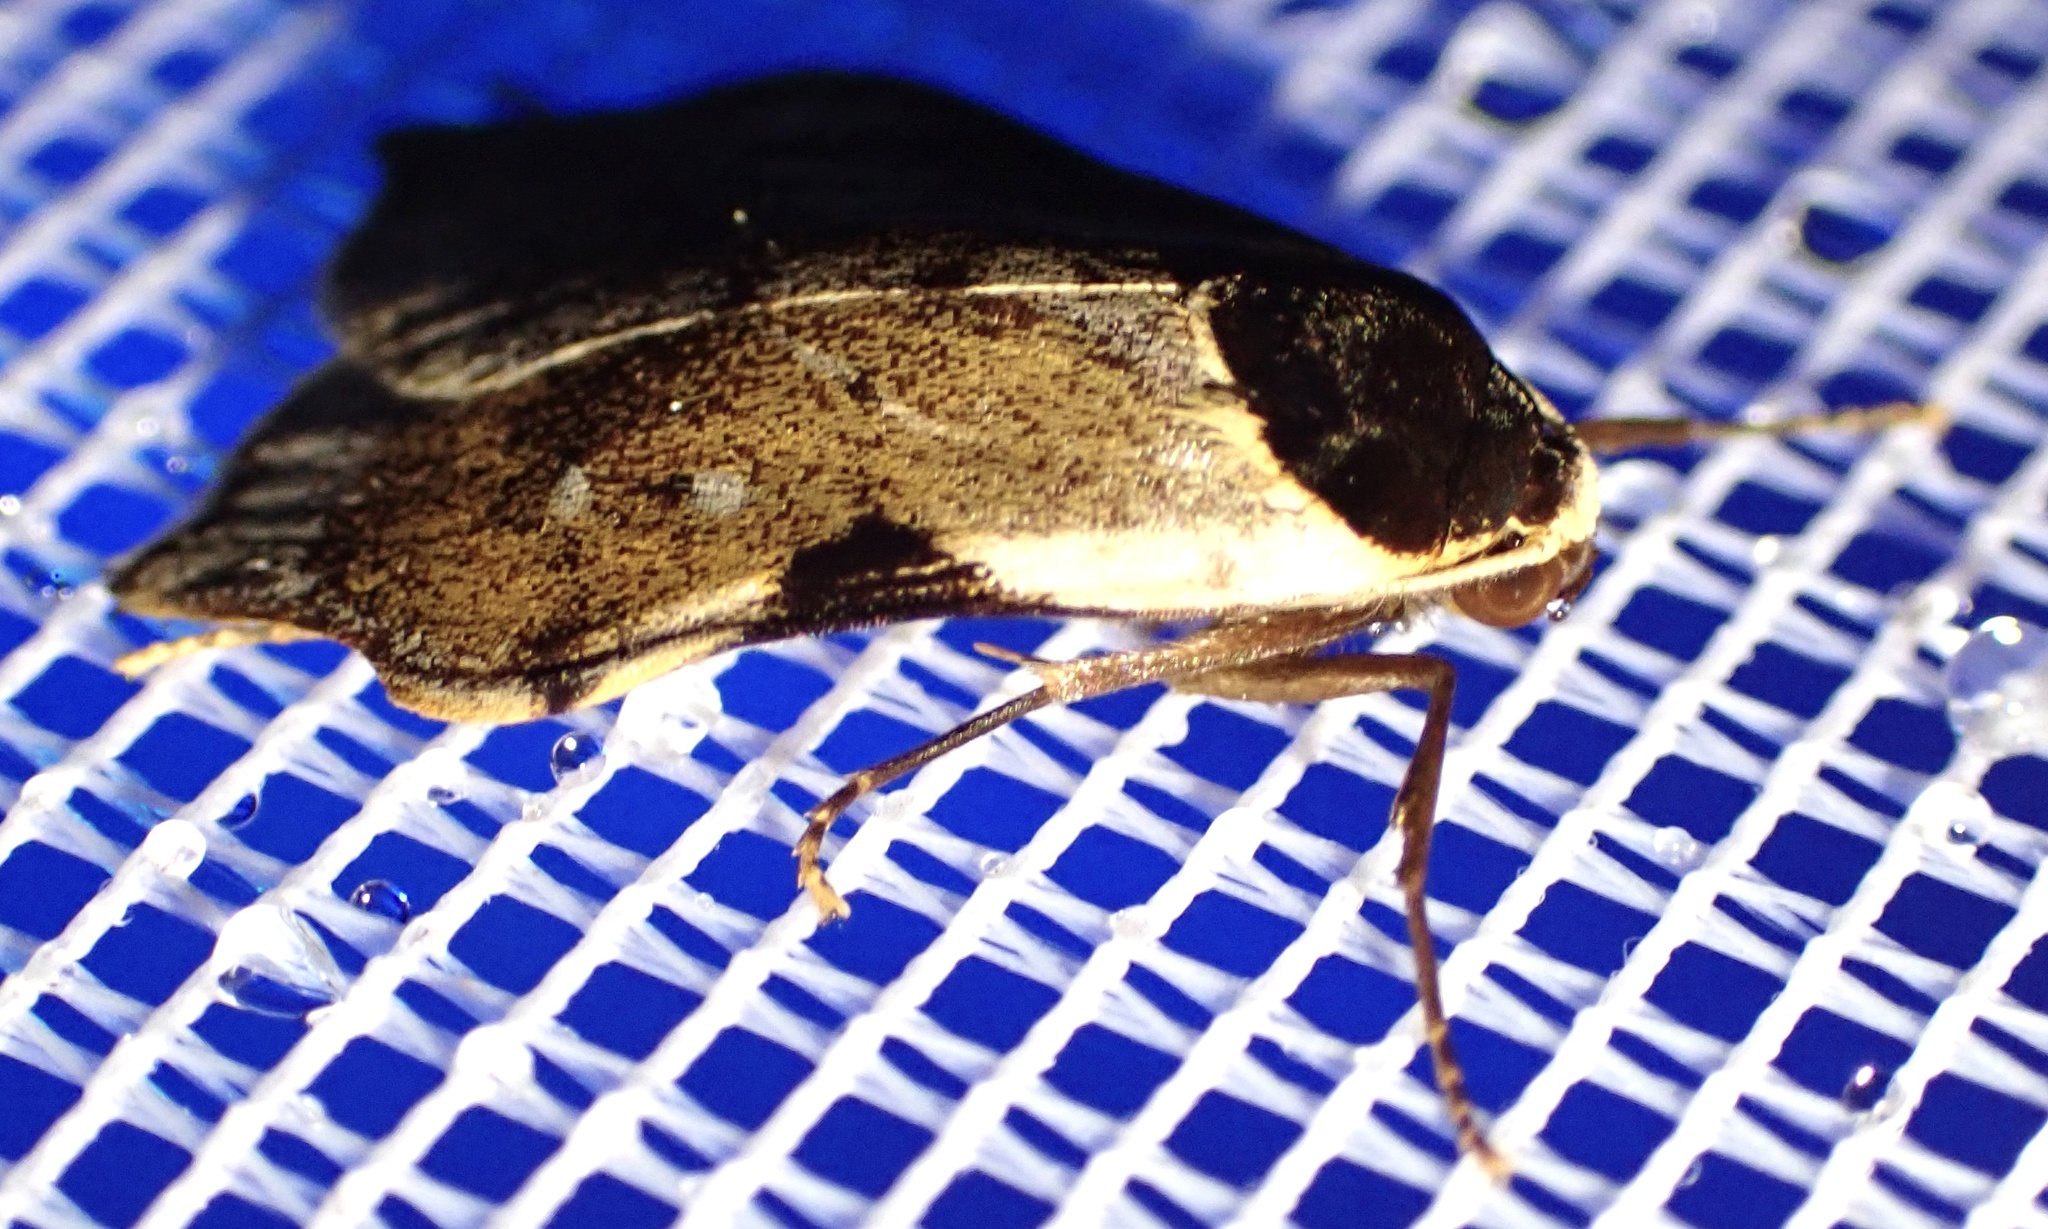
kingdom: Animalia
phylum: Arthropoda
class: Insecta
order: Lepidoptera
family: Erebidae
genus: Macaduma
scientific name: Macaduma costimacula
